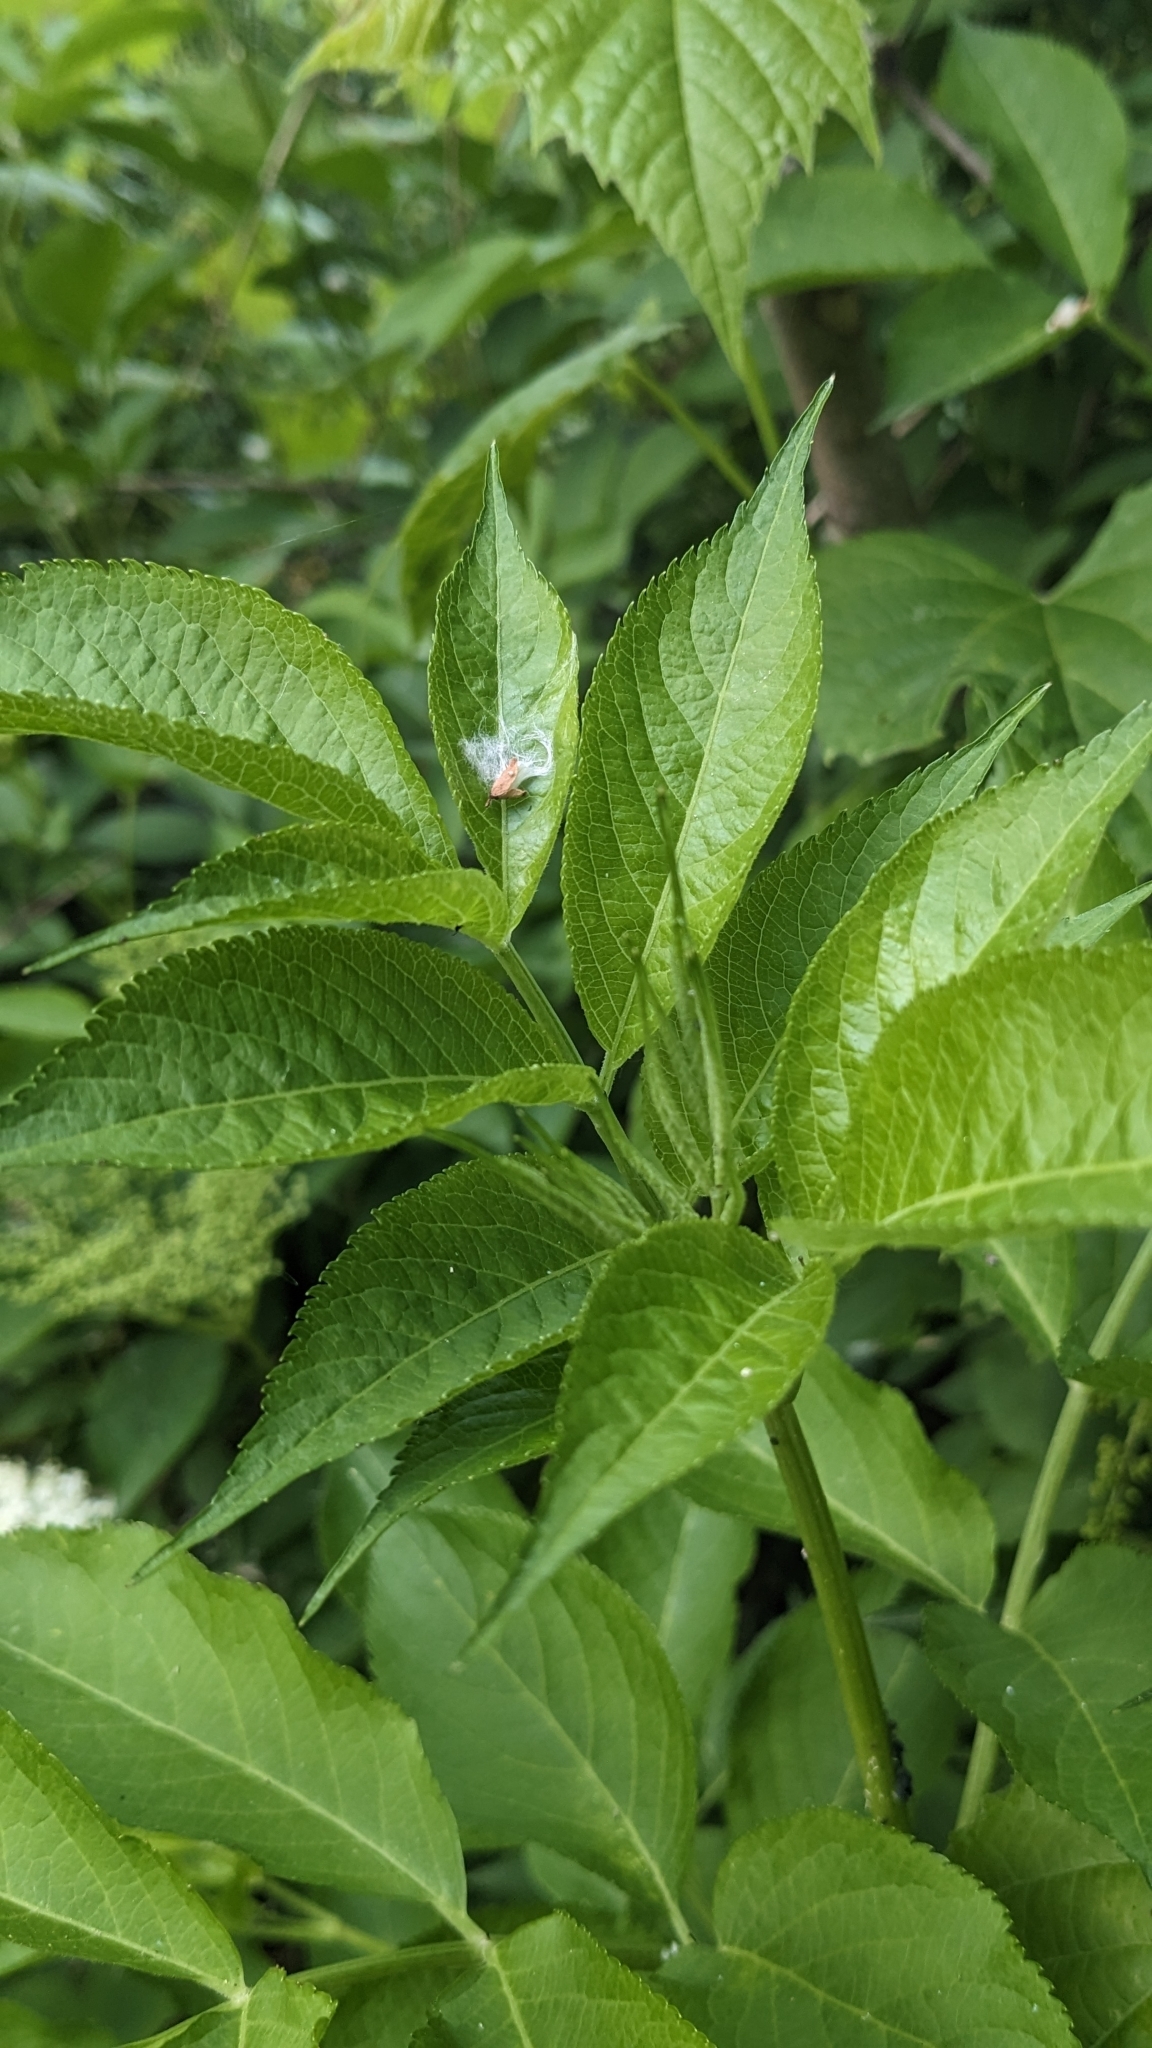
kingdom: Plantae
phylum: Tracheophyta
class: Magnoliopsida
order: Dipsacales
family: Viburnaceae
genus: Sambucus
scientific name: Sambucus nigra
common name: Elder
